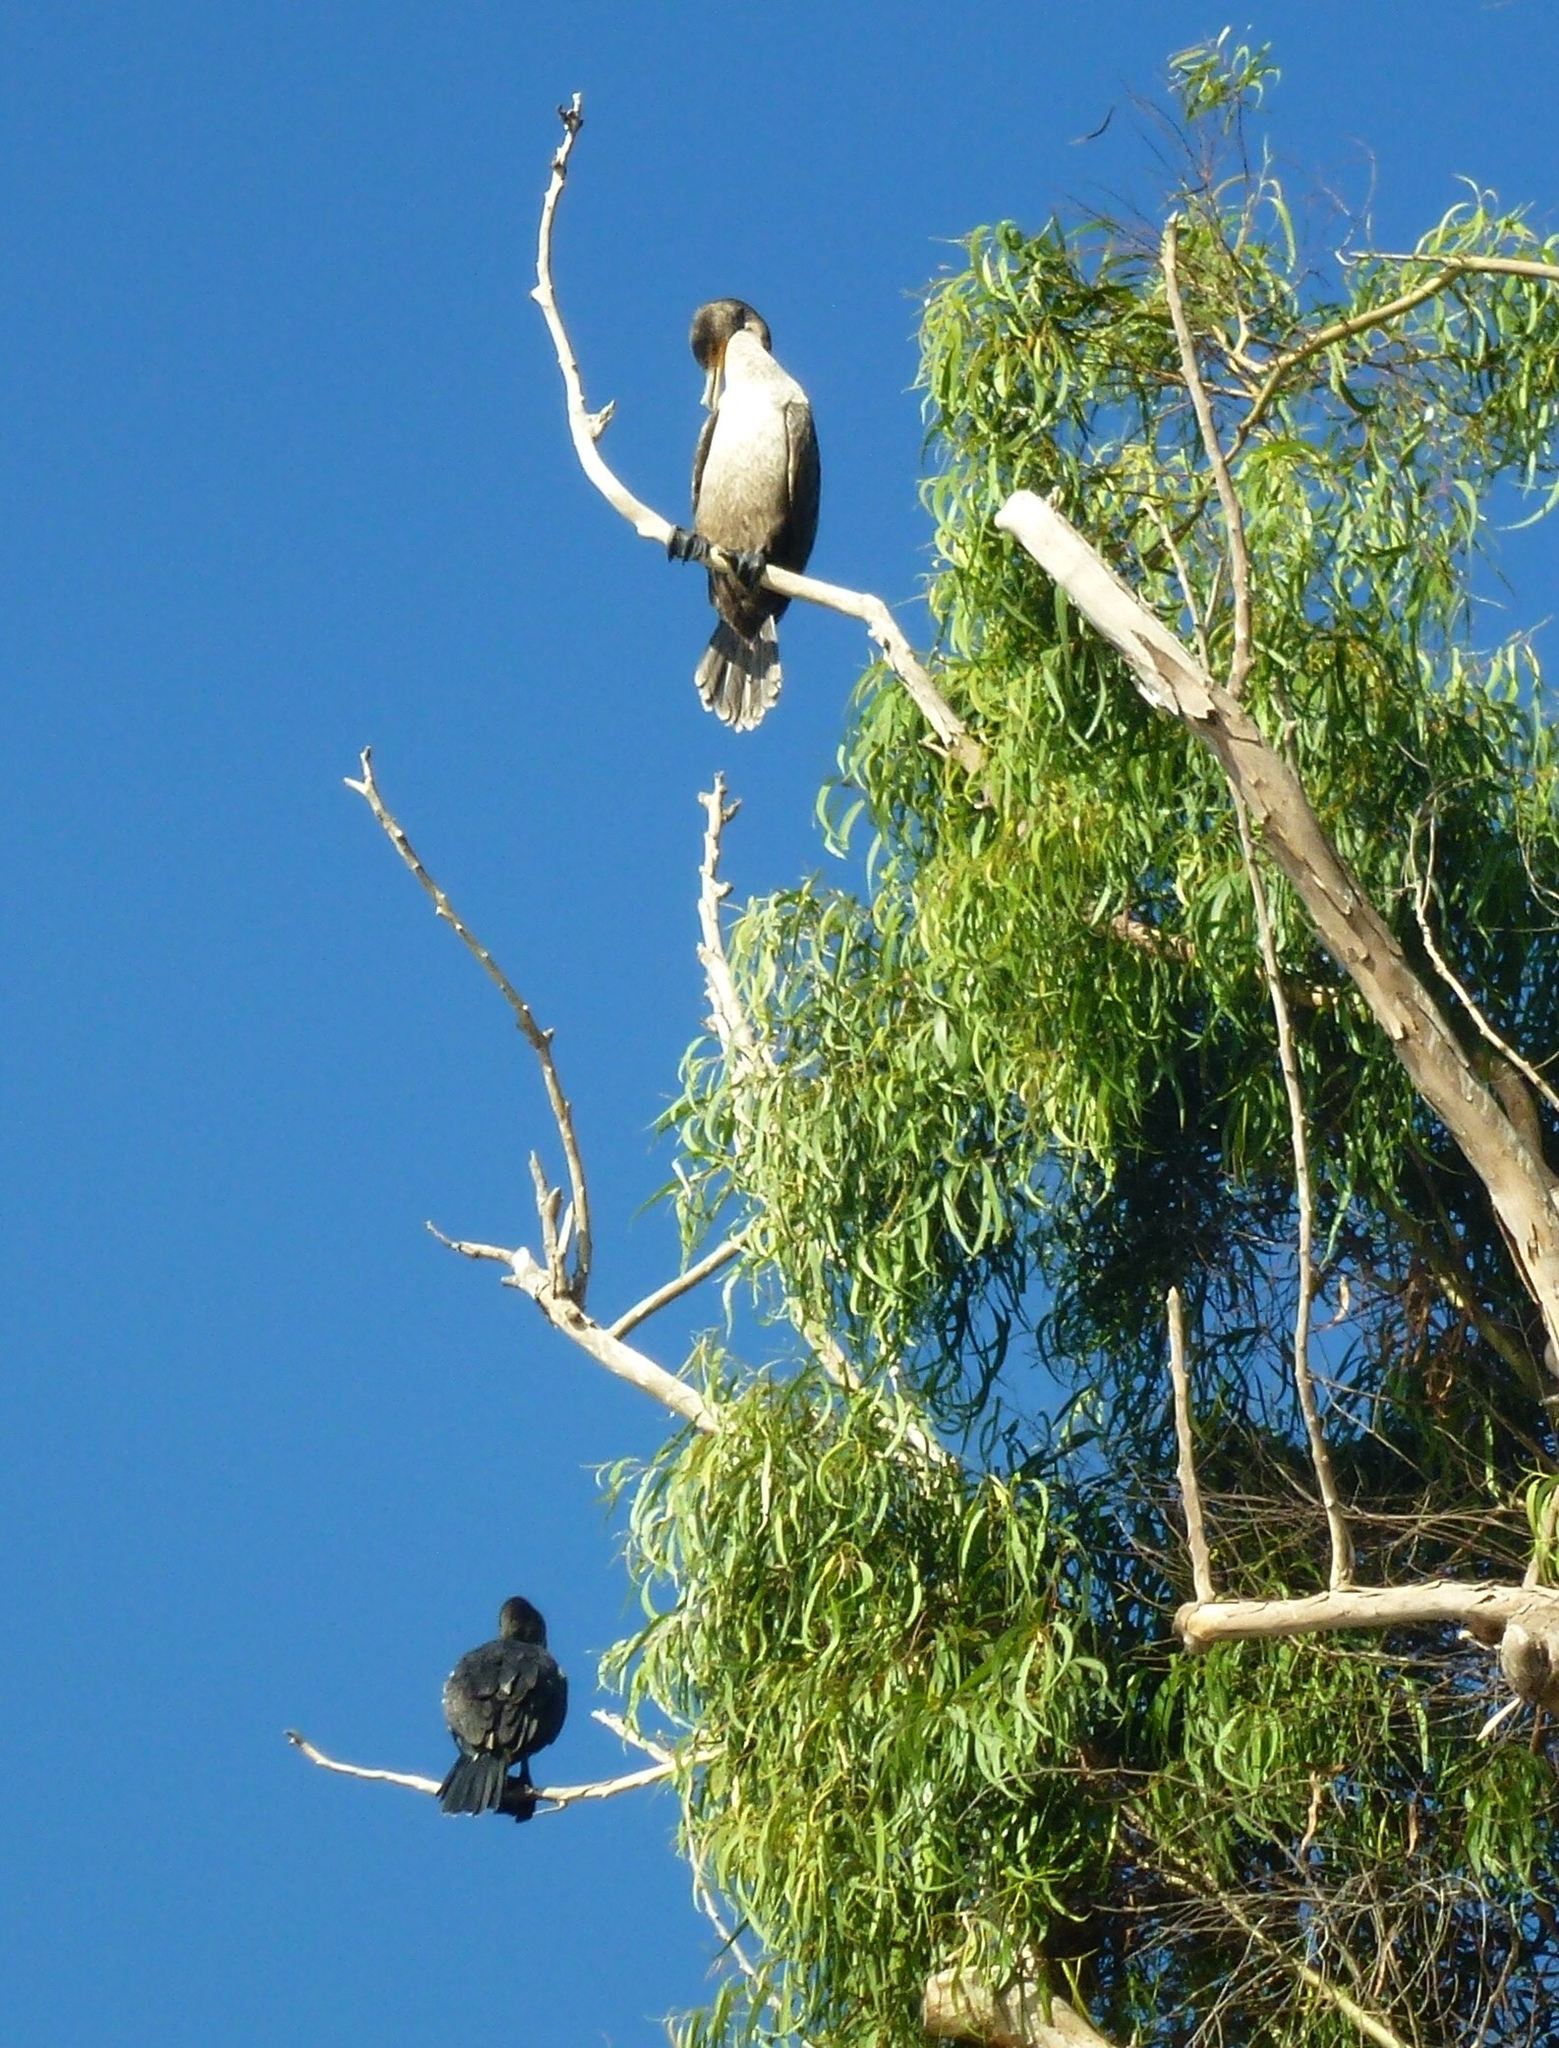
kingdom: Animalia
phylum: Chordata
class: Aves
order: Suliformes
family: Phalacrocoracidae
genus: Phalacrocorax
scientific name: Phalacrocorax auritus
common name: Double-crested cormorant
